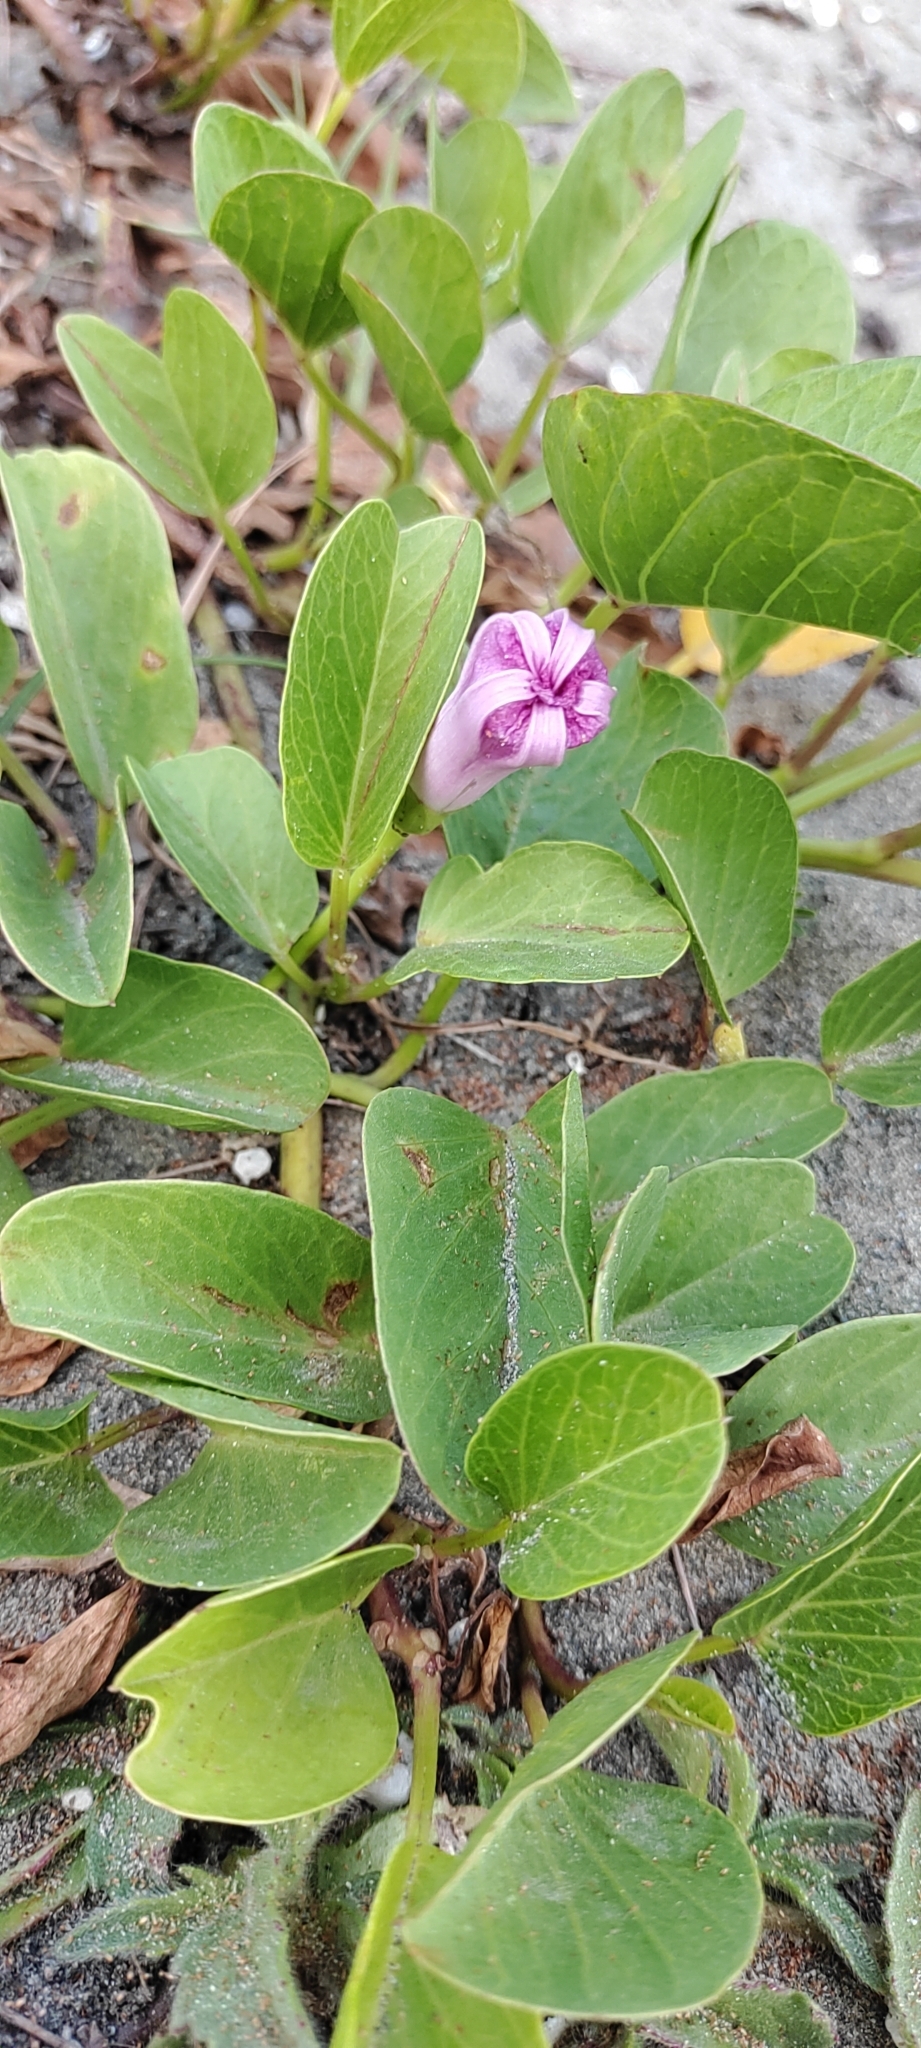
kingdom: Plantae
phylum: Tracheophyta
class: Magnoliopsida
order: Solanales
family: Convolvulaceae
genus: Ipomoea
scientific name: Ipomoea pes-caprae
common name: Beach morning glory
